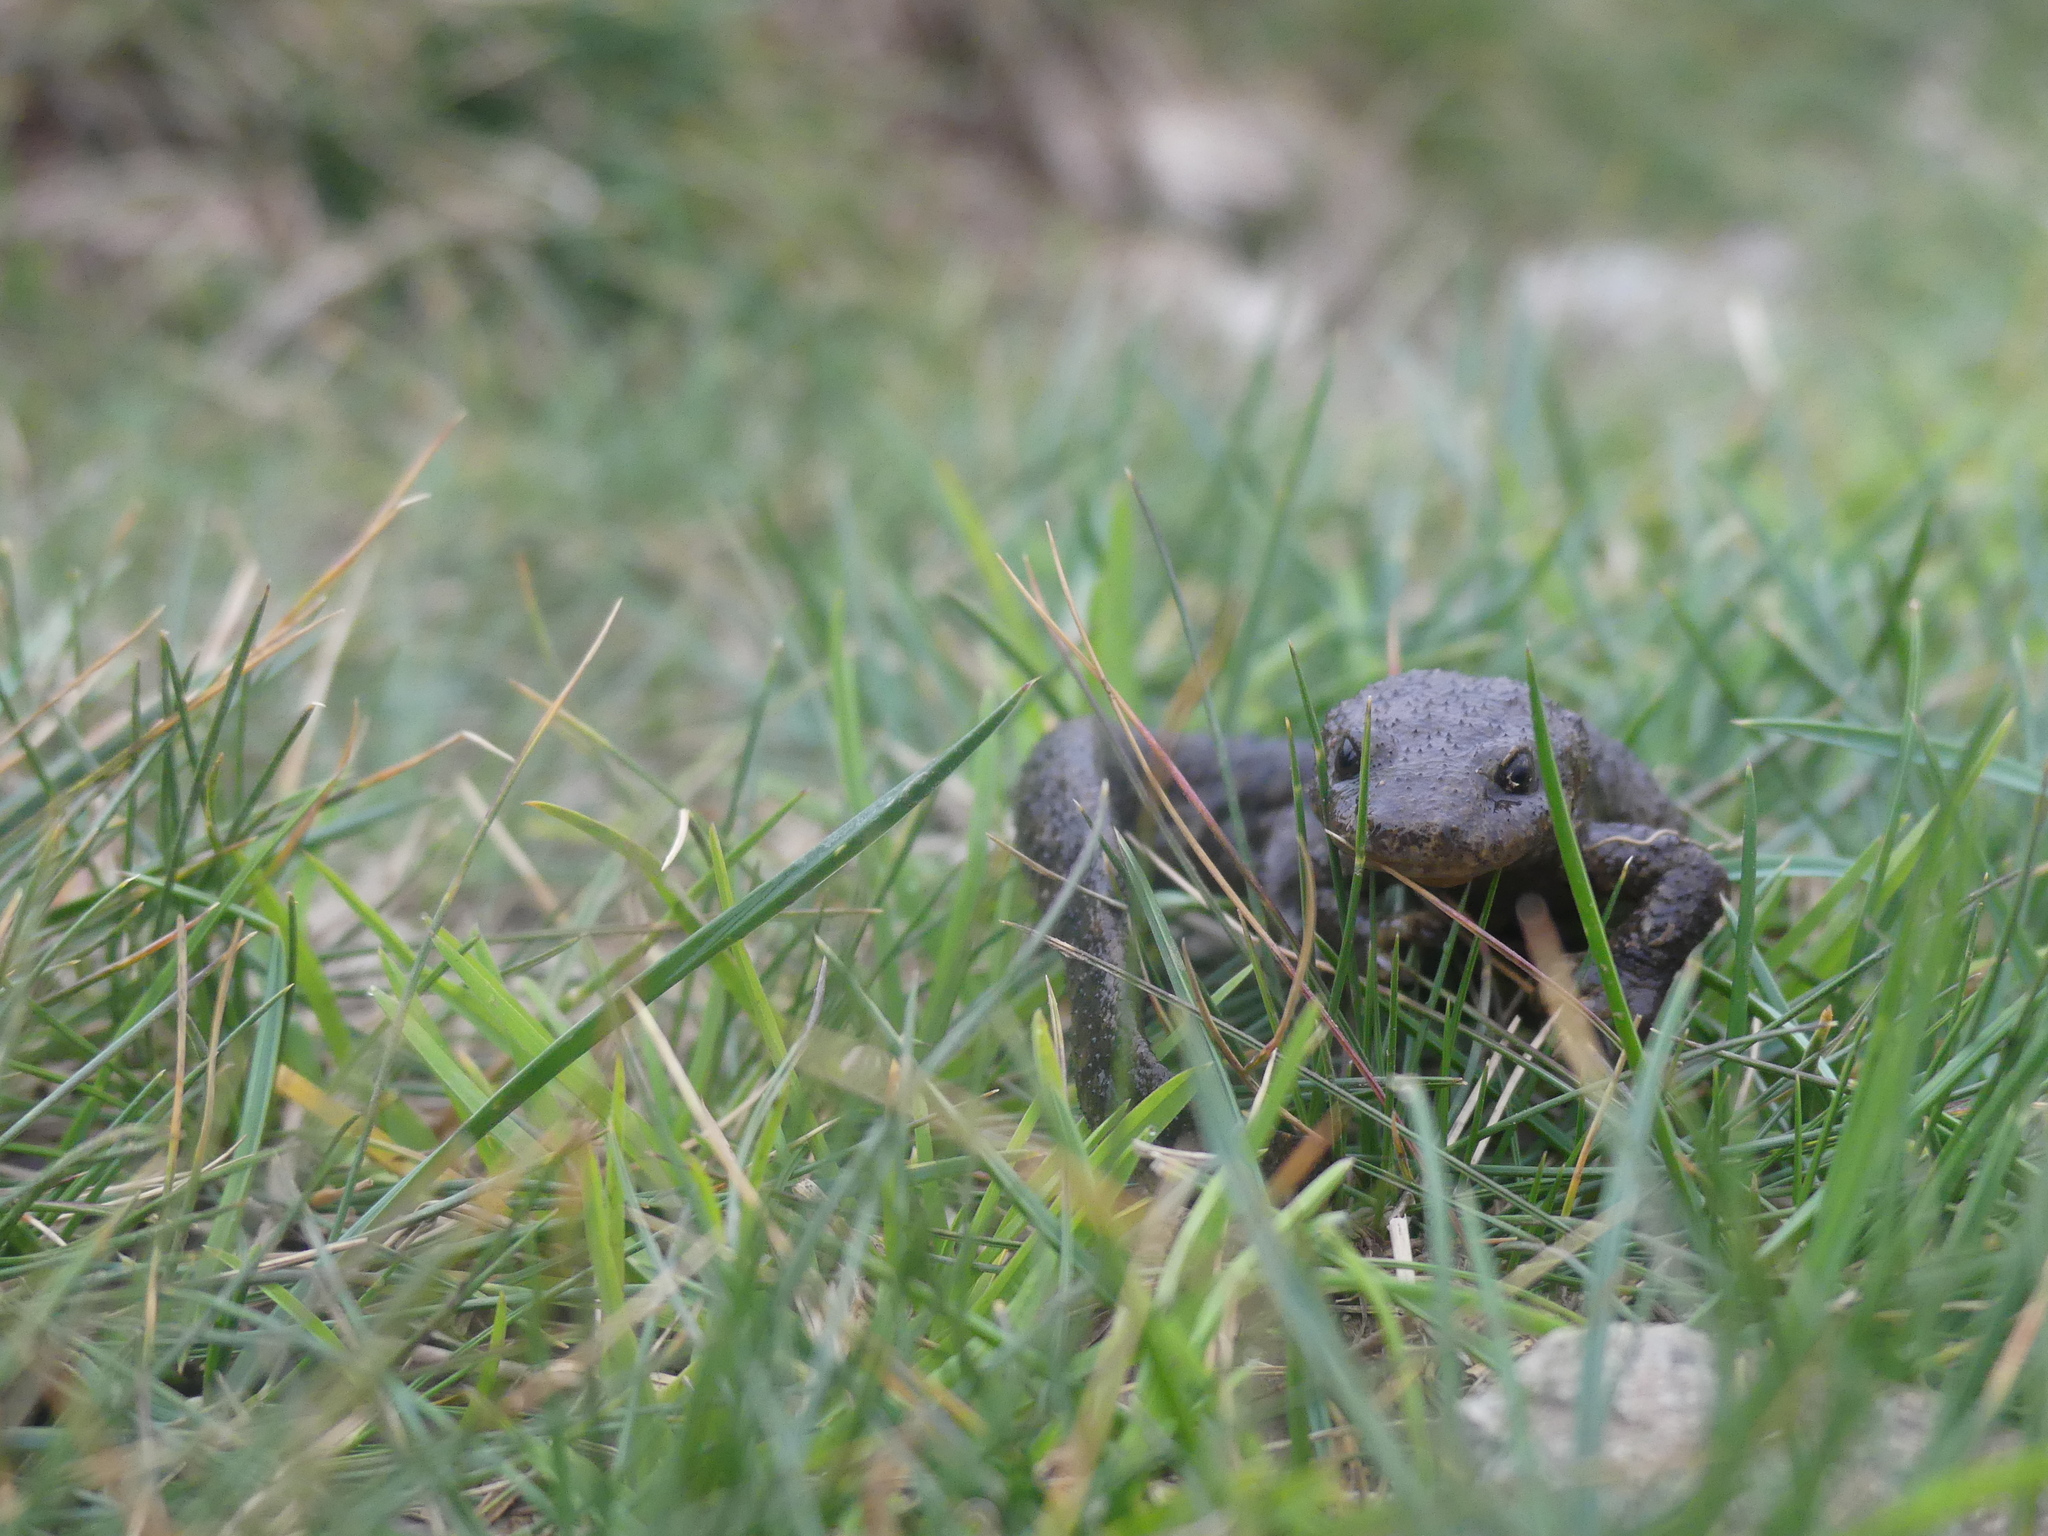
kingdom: Animalia
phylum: Chordata
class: Amphibia
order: Caudata
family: Salamandridae
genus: Calotriton
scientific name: Calotriton asper
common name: Pyrenean brook salamander
